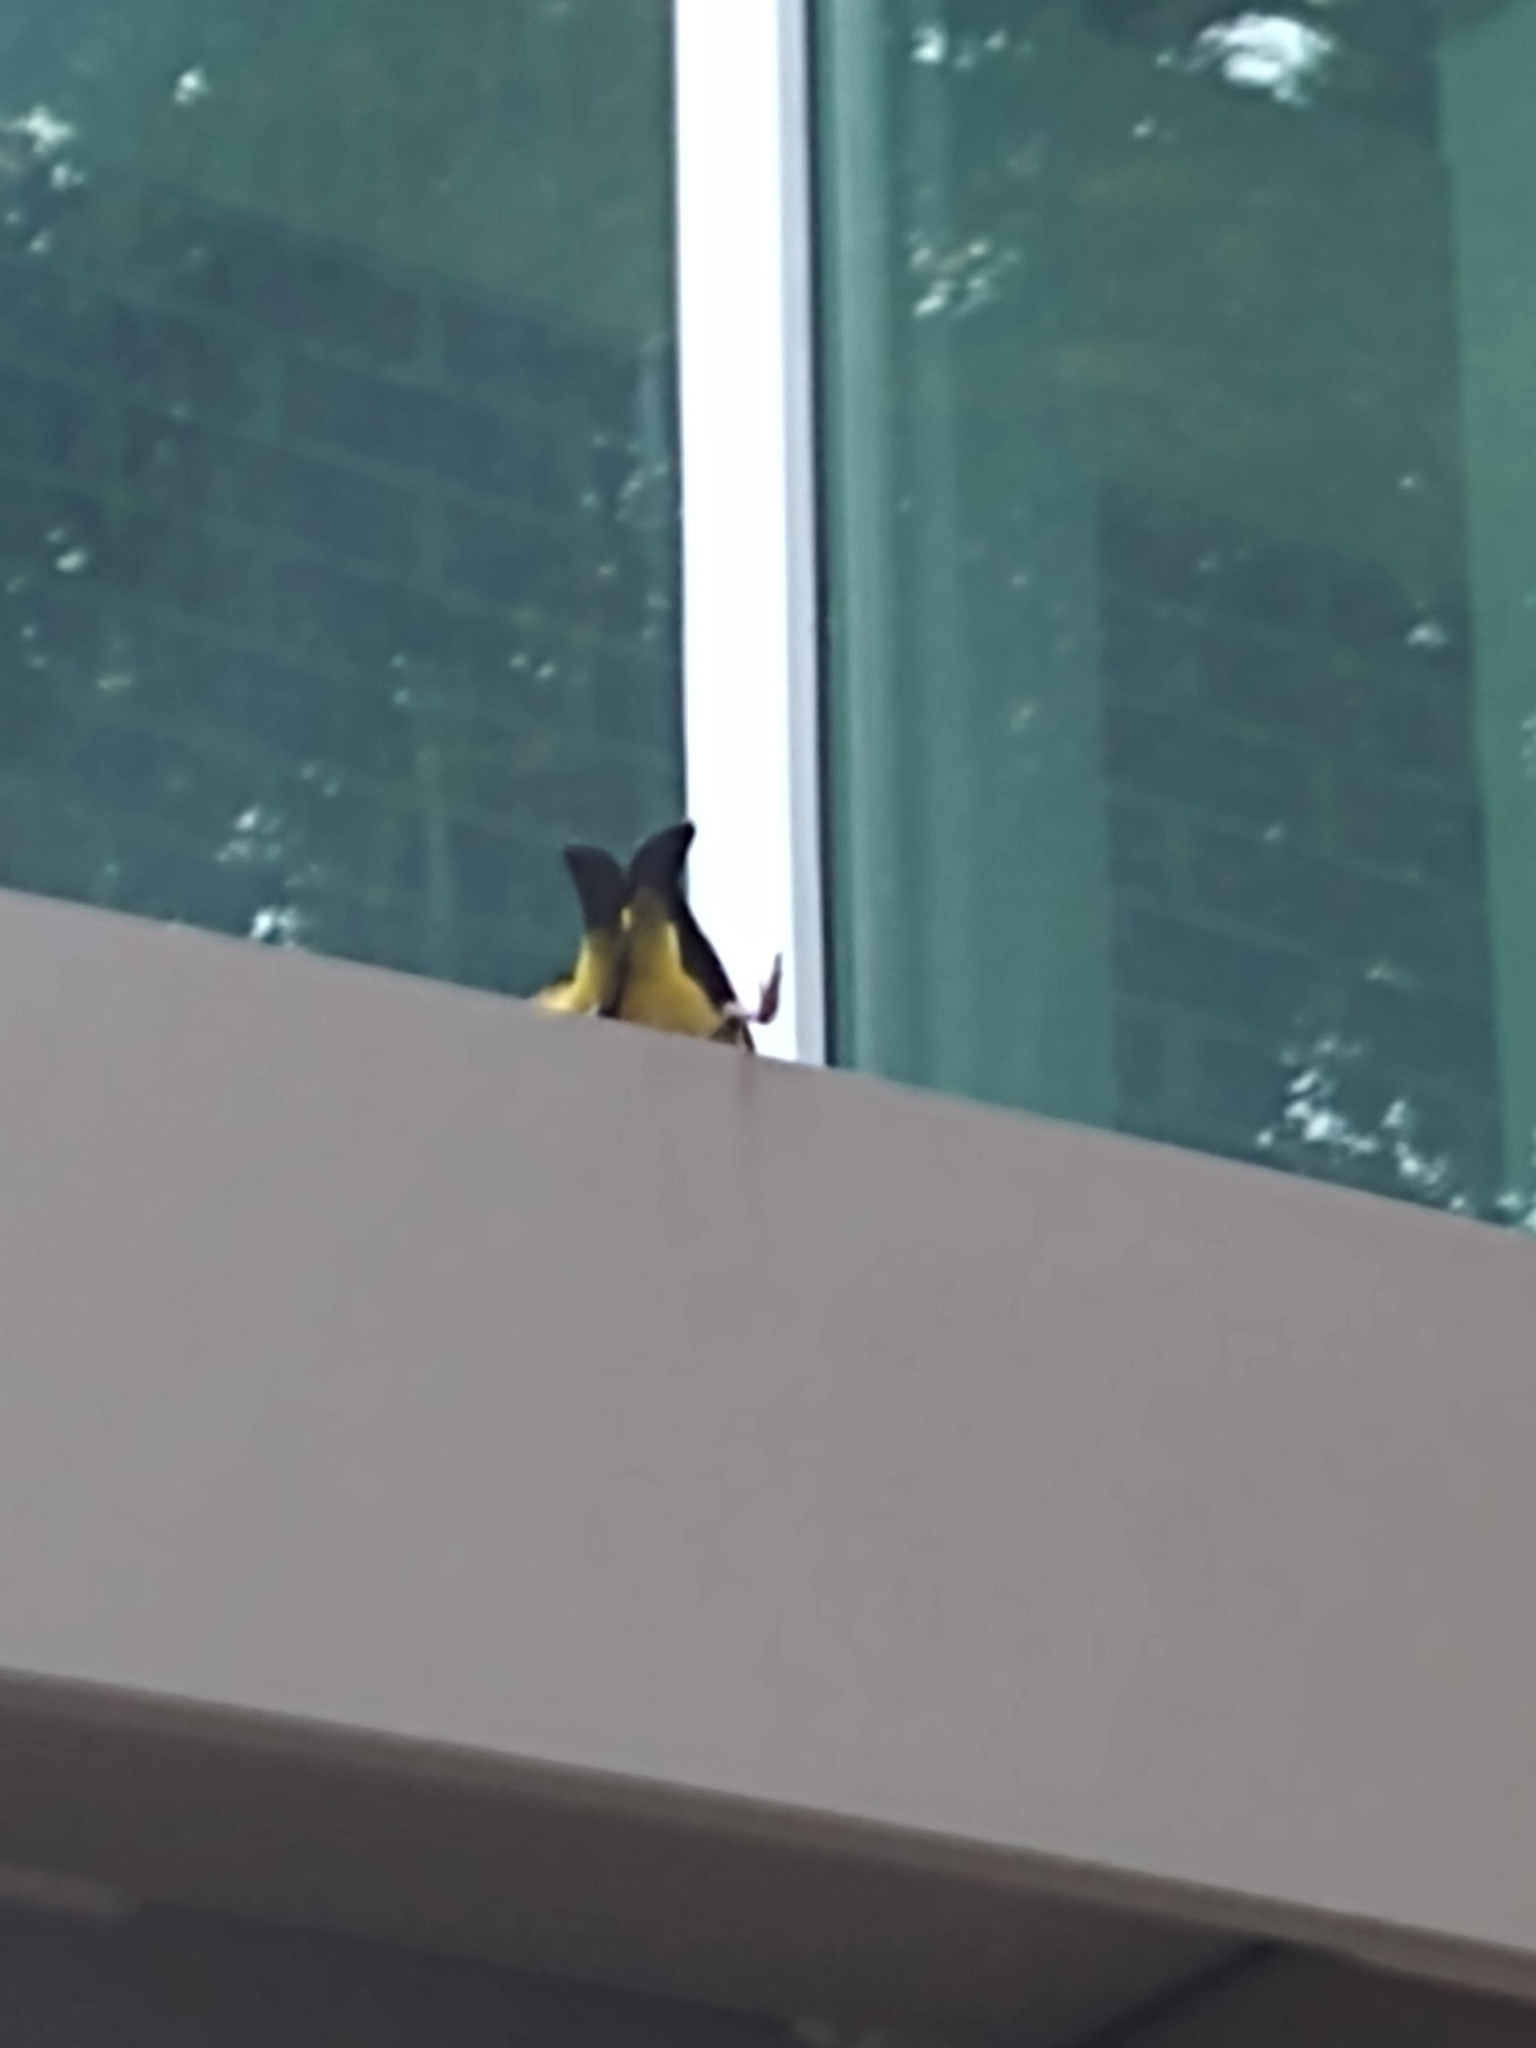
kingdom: Animalia
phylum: Chordata
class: Aves
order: Passeriformes
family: Cardinalidae
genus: Piranga
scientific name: Piranga ludoviciana
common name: Western tanager
